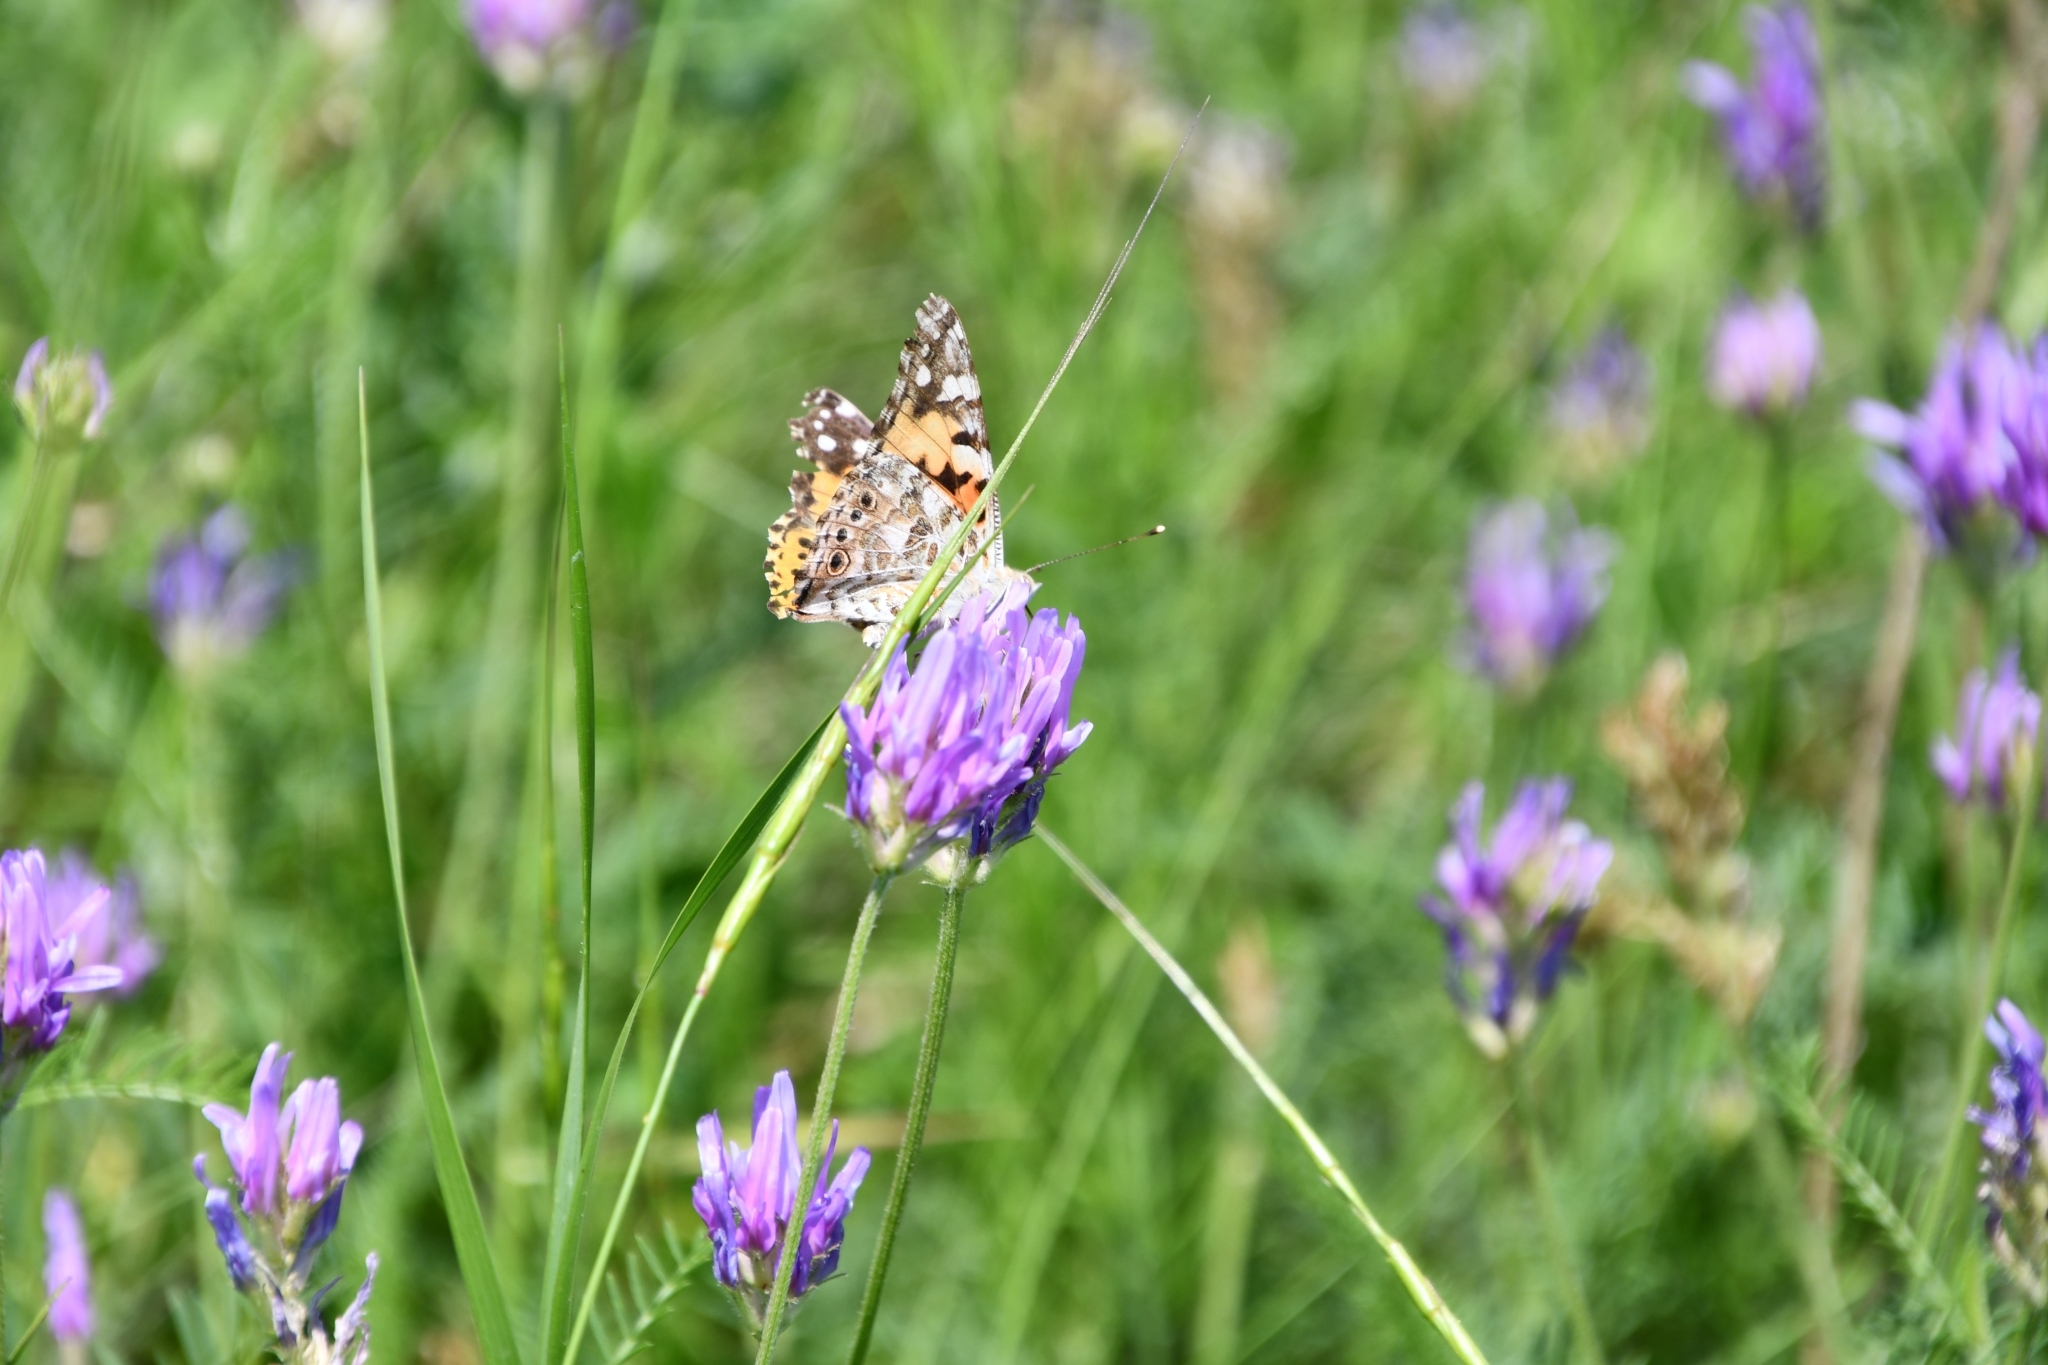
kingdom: Animalia
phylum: Arthropoda
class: Insecta
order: Lepidoptera
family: Nymphalidae
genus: Vanessa
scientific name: Vanessa cardui
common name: Painted lady
